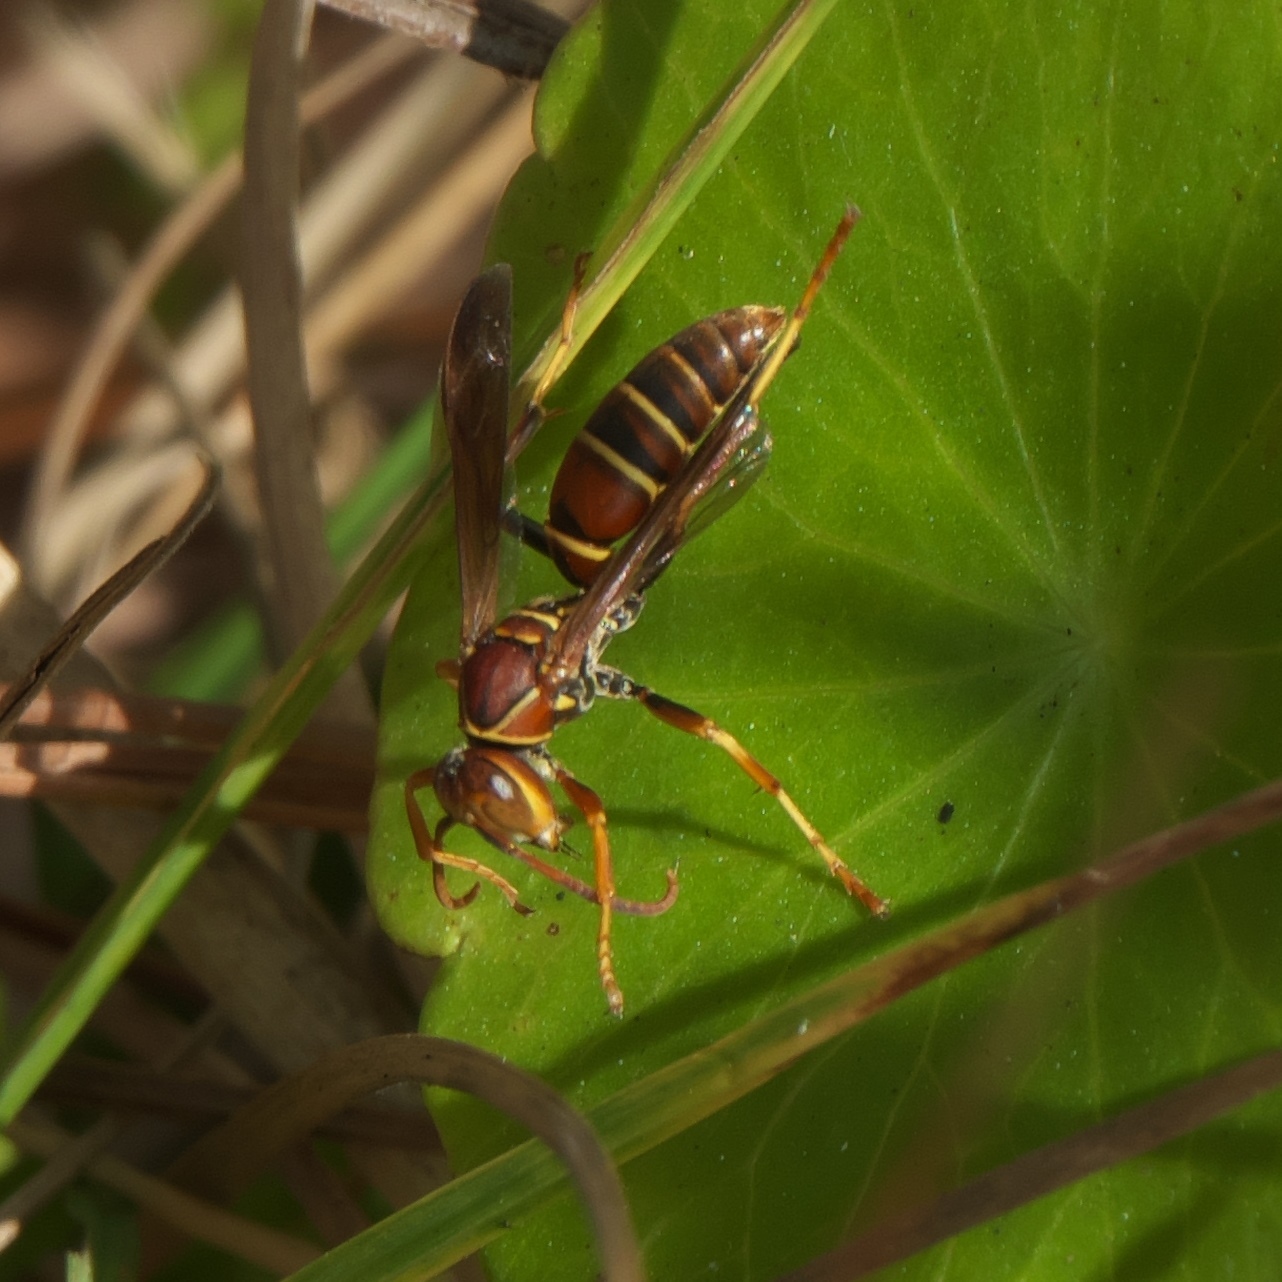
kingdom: Animalia
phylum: Arthropoda
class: Insecta
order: Hymenoptera
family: Eumenidae
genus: Polistes
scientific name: Polistes dorsalis
